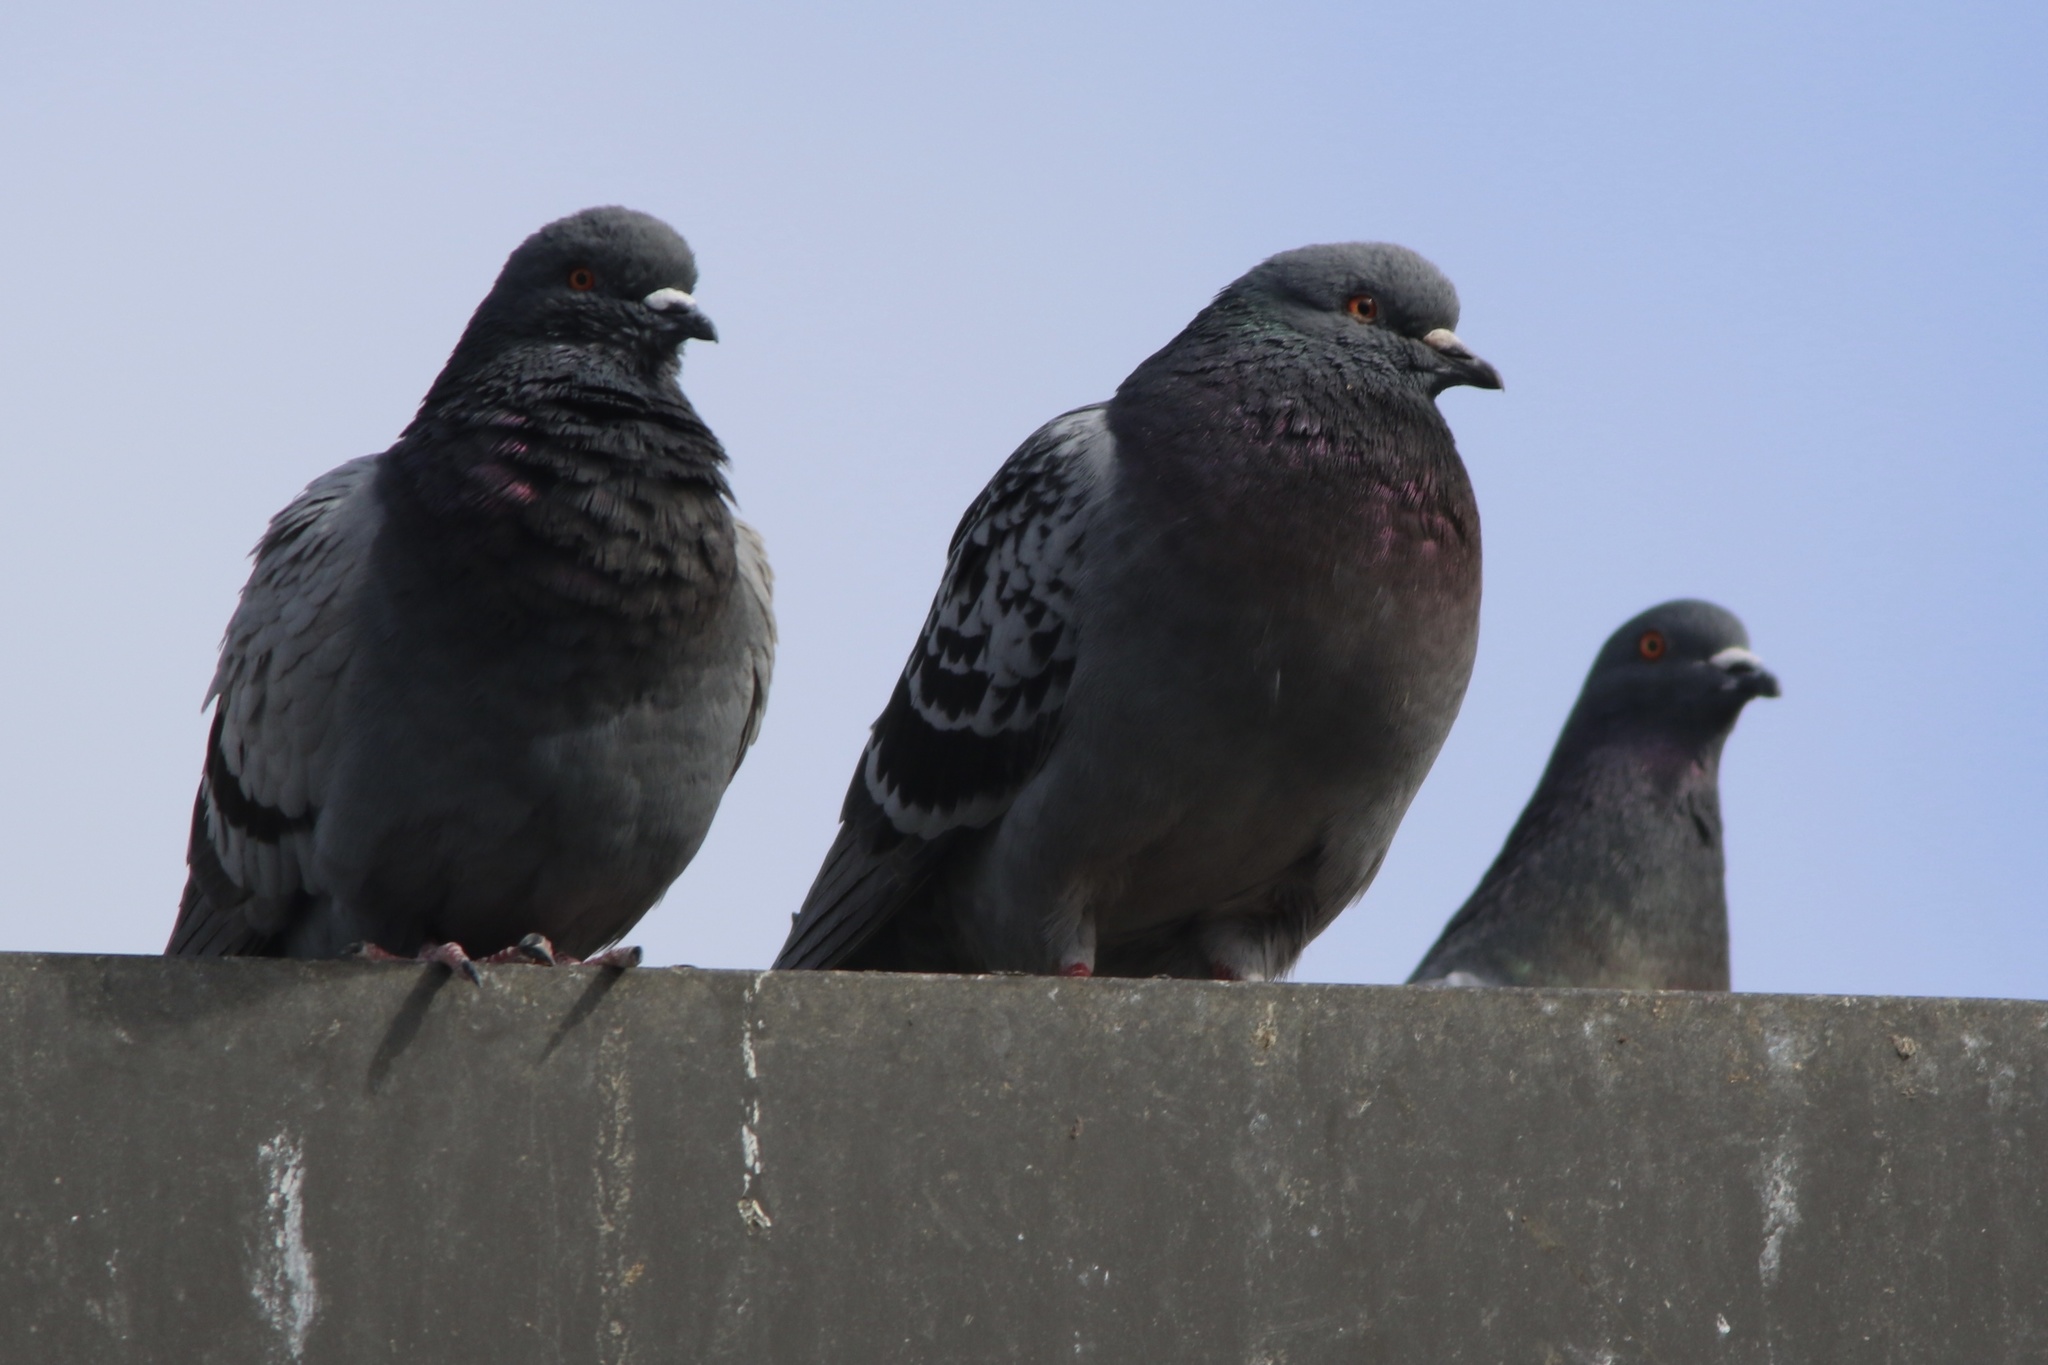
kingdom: Animalia
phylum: Chordata
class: Aves
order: Columbiformes
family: Columbidae
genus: Columba
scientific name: Columba livia
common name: Rock pigeon
